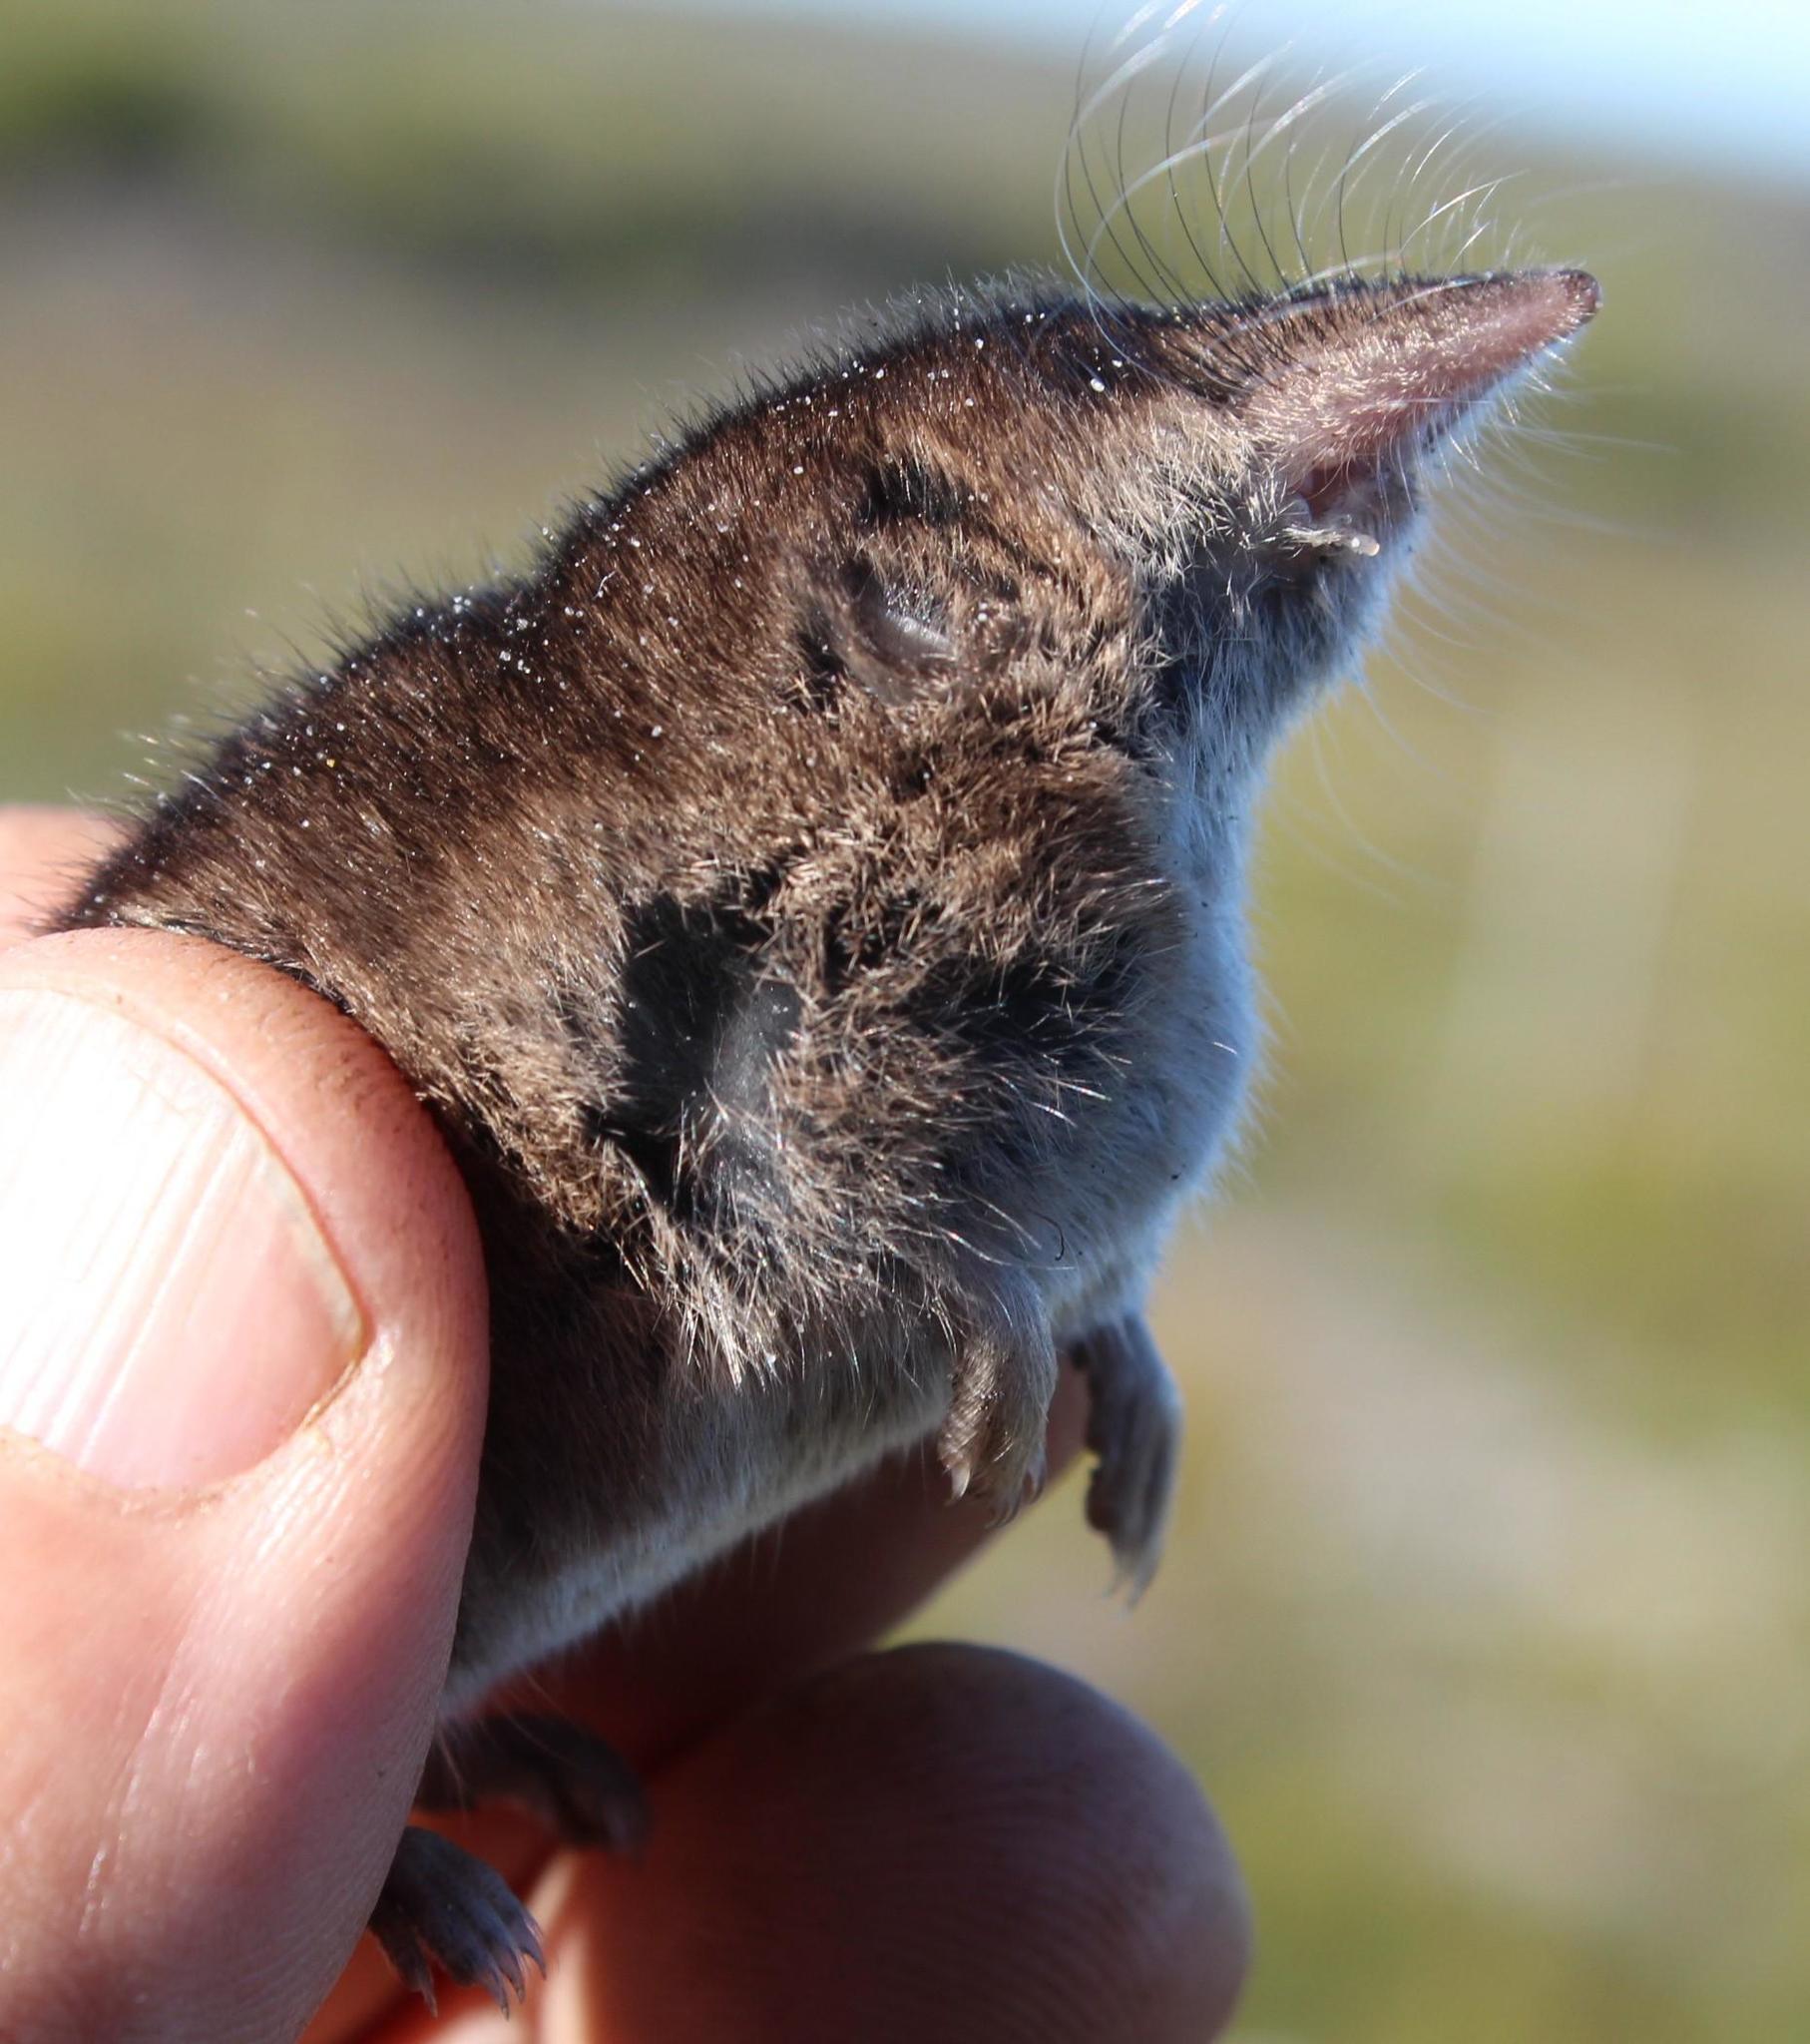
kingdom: Animalia
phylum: Chordata
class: Mammalia
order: Soricomorpha
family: Soricidae
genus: Myosorex
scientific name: Myosorex varius
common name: Forest shrew
